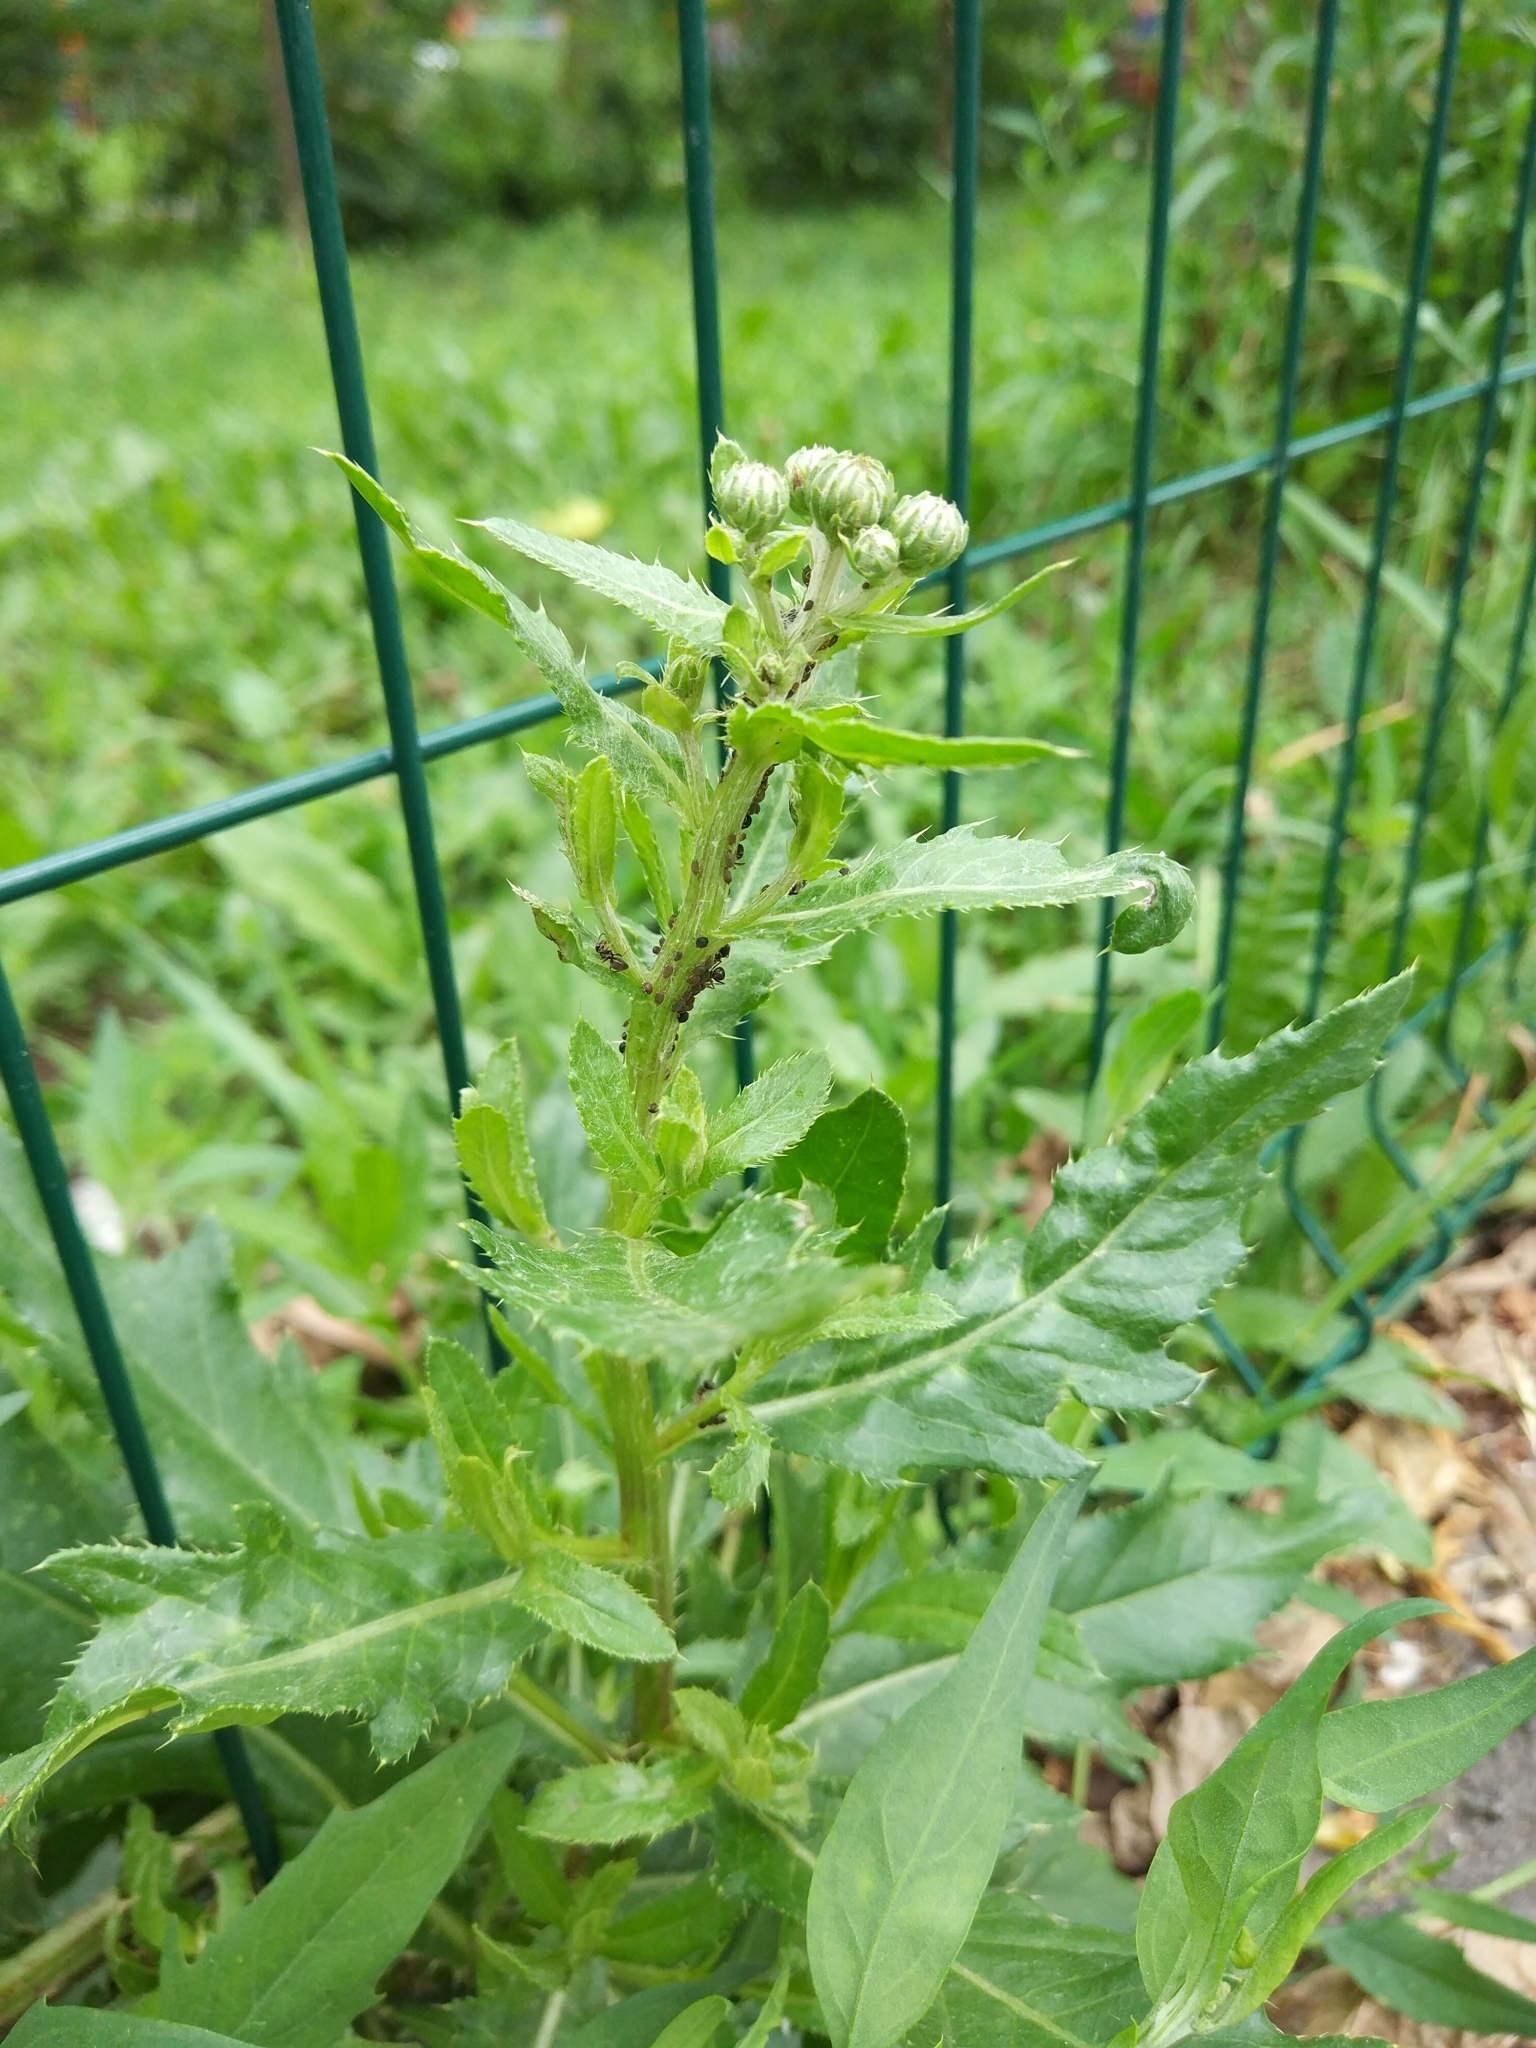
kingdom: Plantae
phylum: Tracheophyta
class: Magnoliopsida
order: Asterales
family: Asteraceae
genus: Cirsium
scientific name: Cirsium arvense
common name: Creeping thistle
